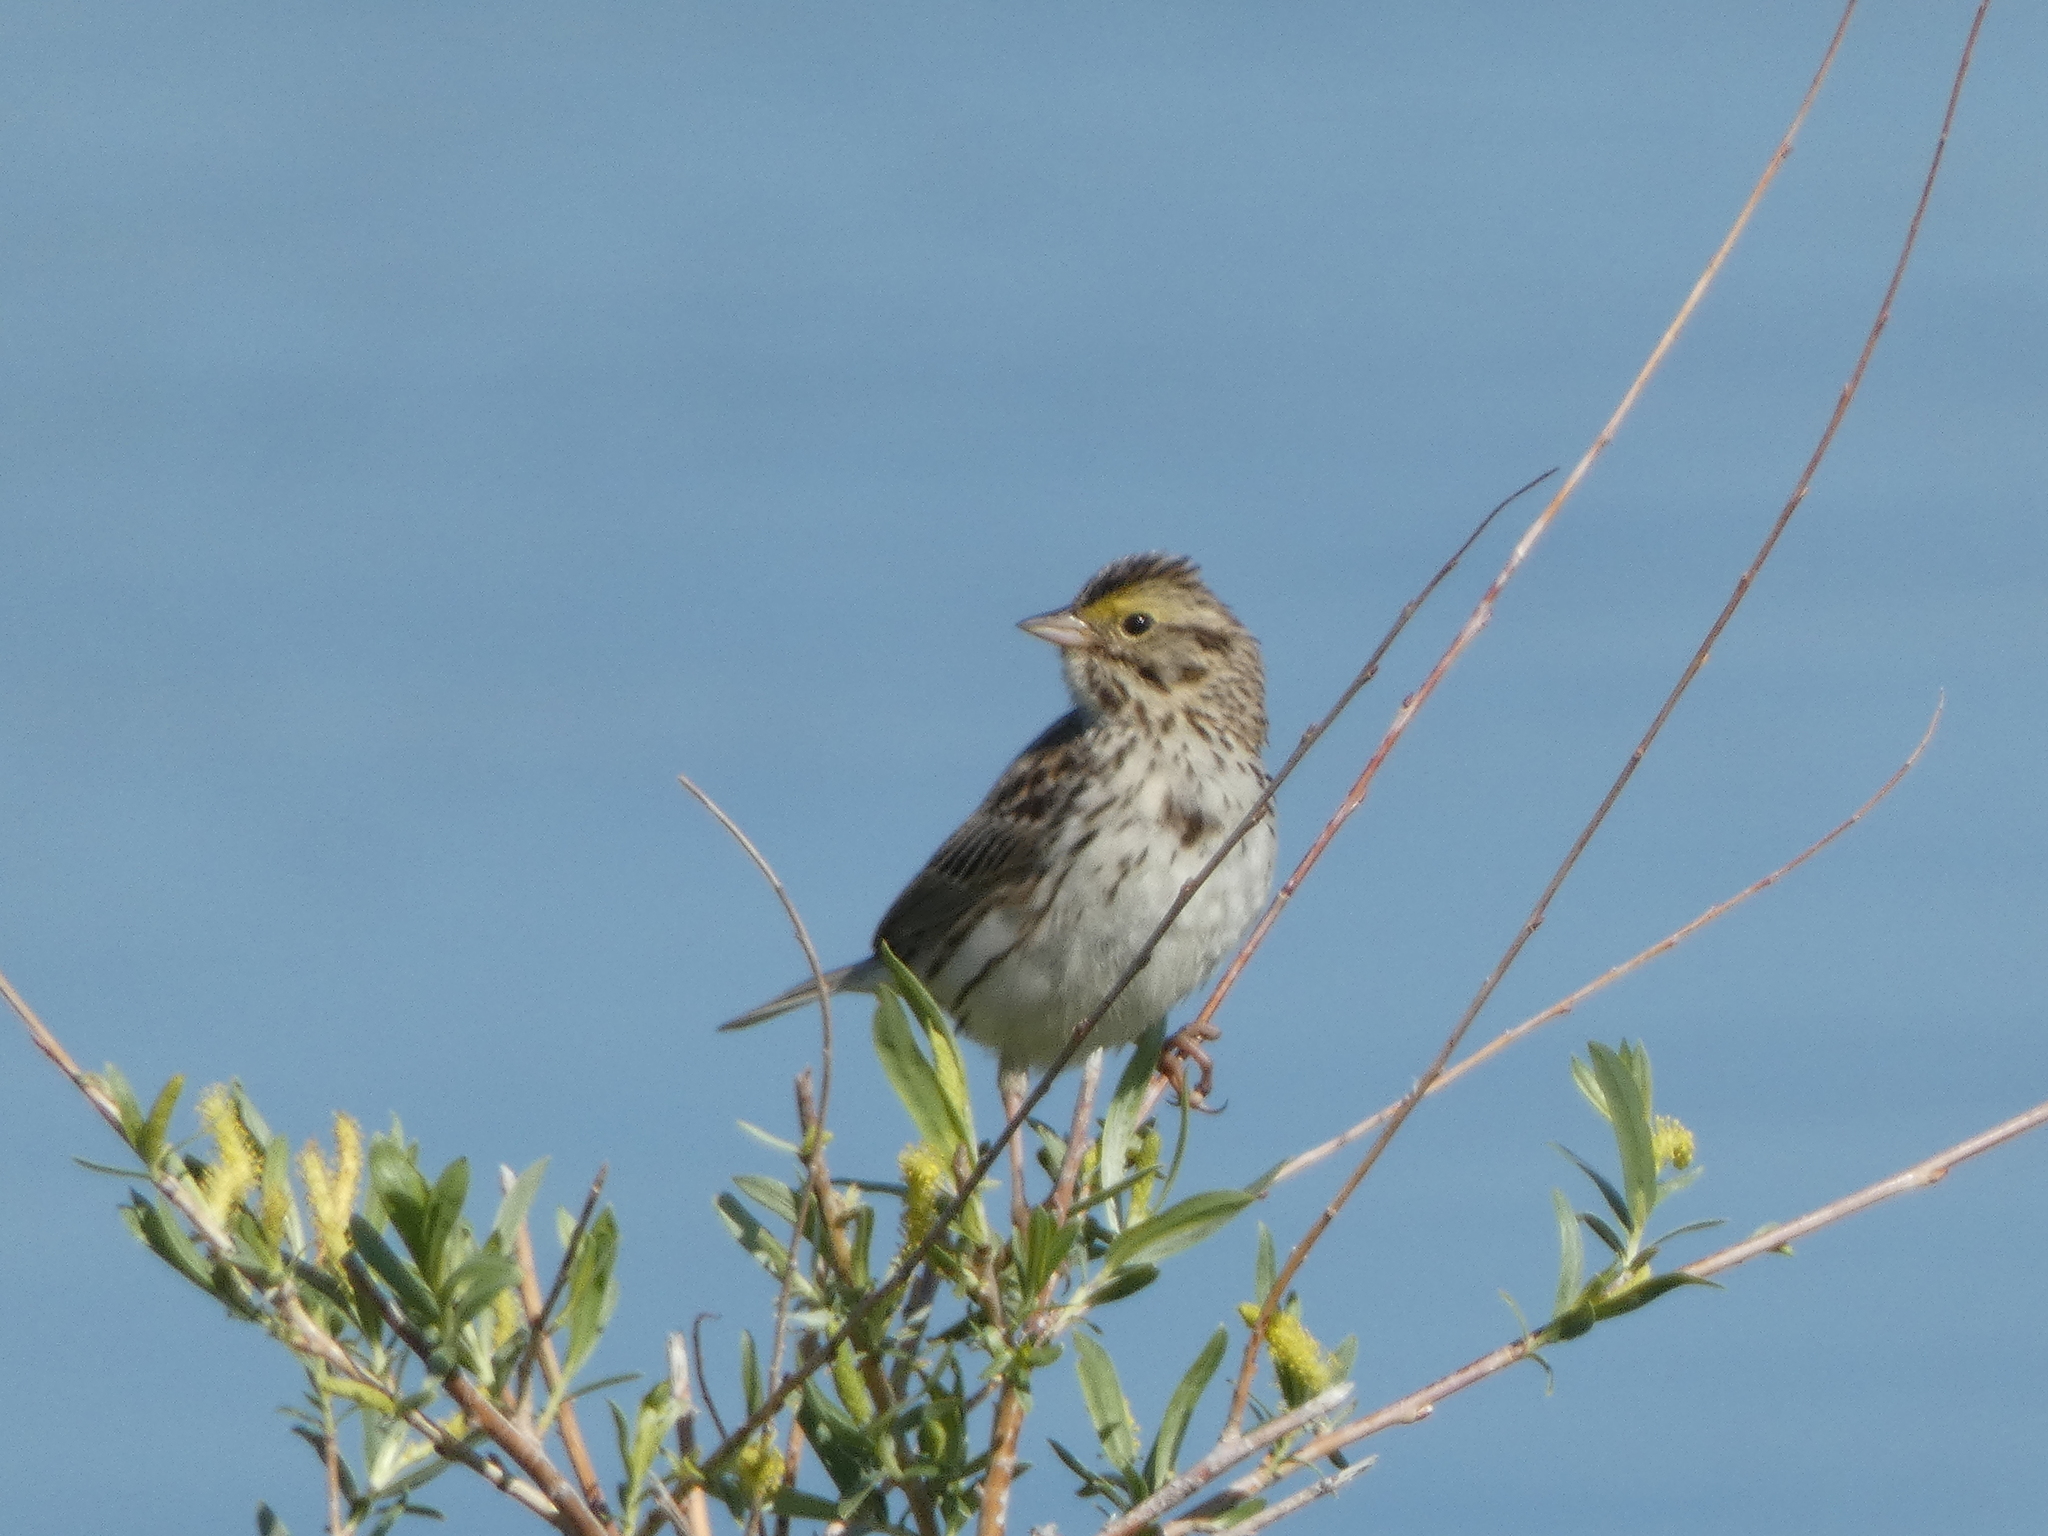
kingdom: Animalia
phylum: Chordata
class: Aves
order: Passeriformes
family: Passerellidae
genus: Passerculus
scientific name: Passerculus sandwichensis
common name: Savannah sparrow
